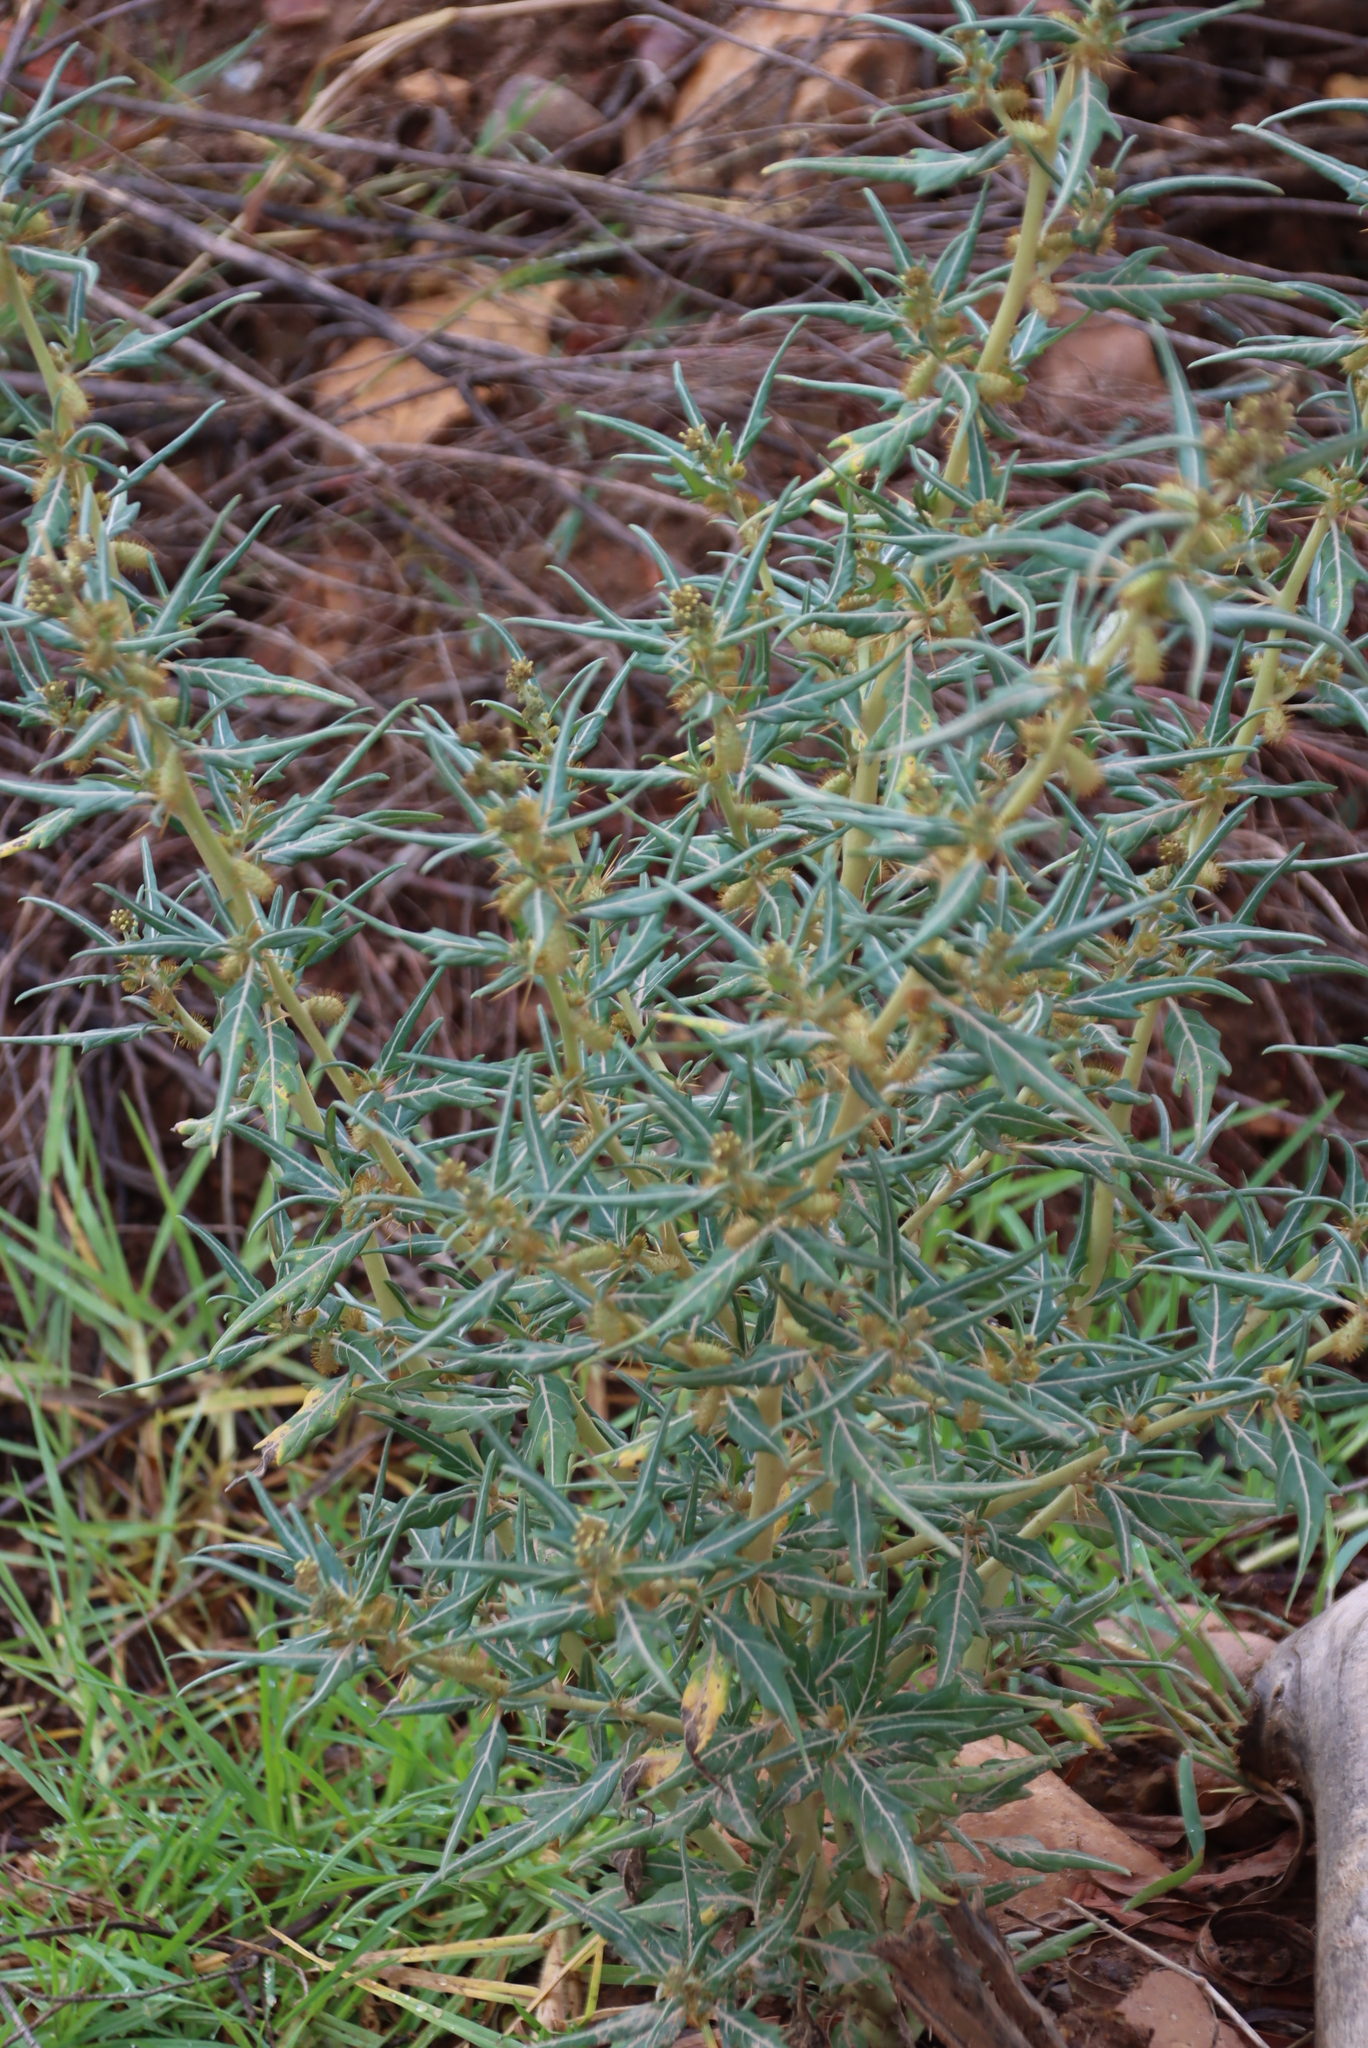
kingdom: Plantae
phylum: Tracheophyta
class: Magnoliopsida
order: Asterales
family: Asteraceae
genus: Xanthium
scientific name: Xanthium spinosum
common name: Spiny cocklebur
